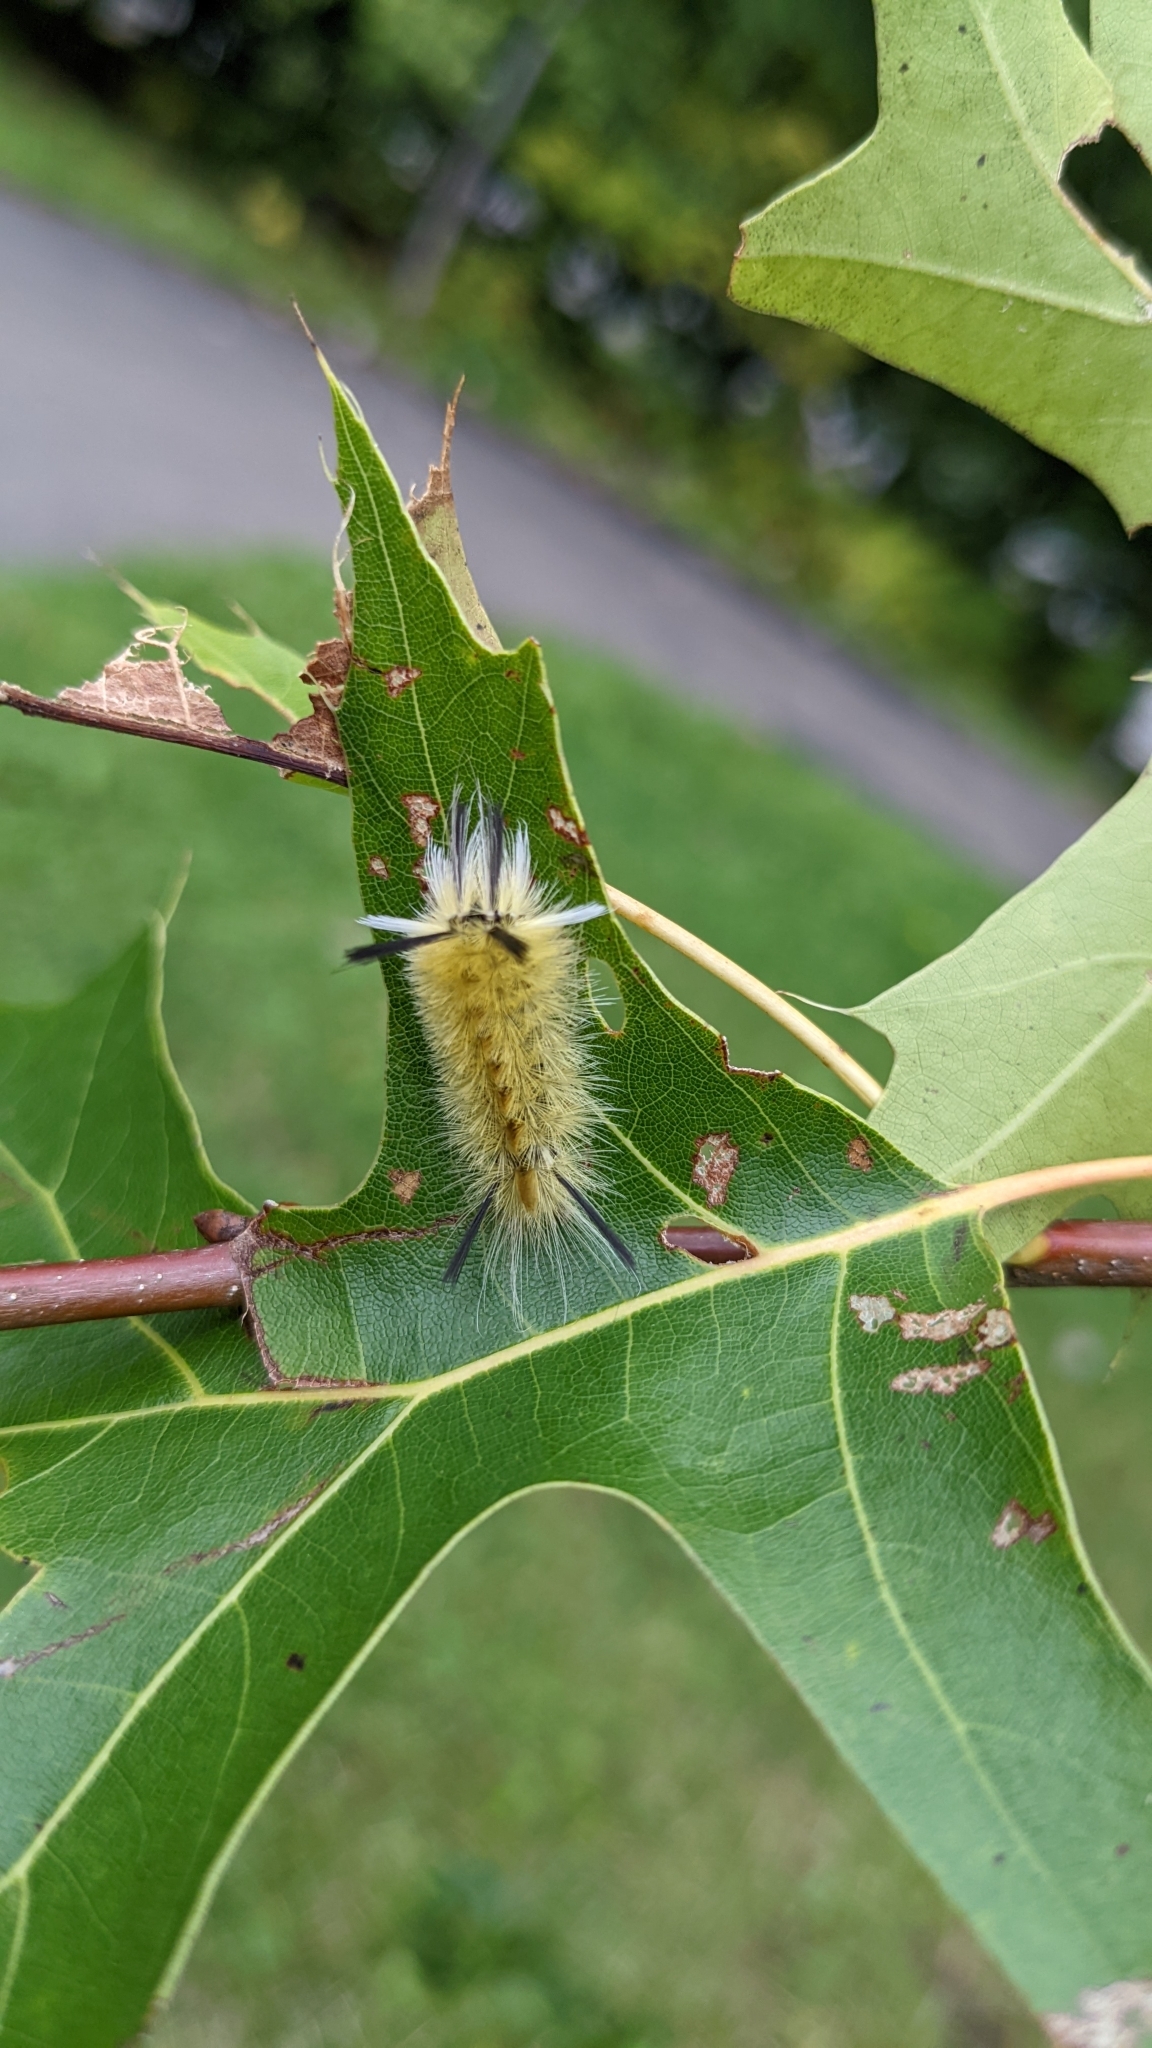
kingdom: Animalia
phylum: Arthropoda
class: Insecta
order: Lepidoptera
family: Erebidae
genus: Halysidota
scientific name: Halysidota tessellaris
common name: Banded tussock moth
